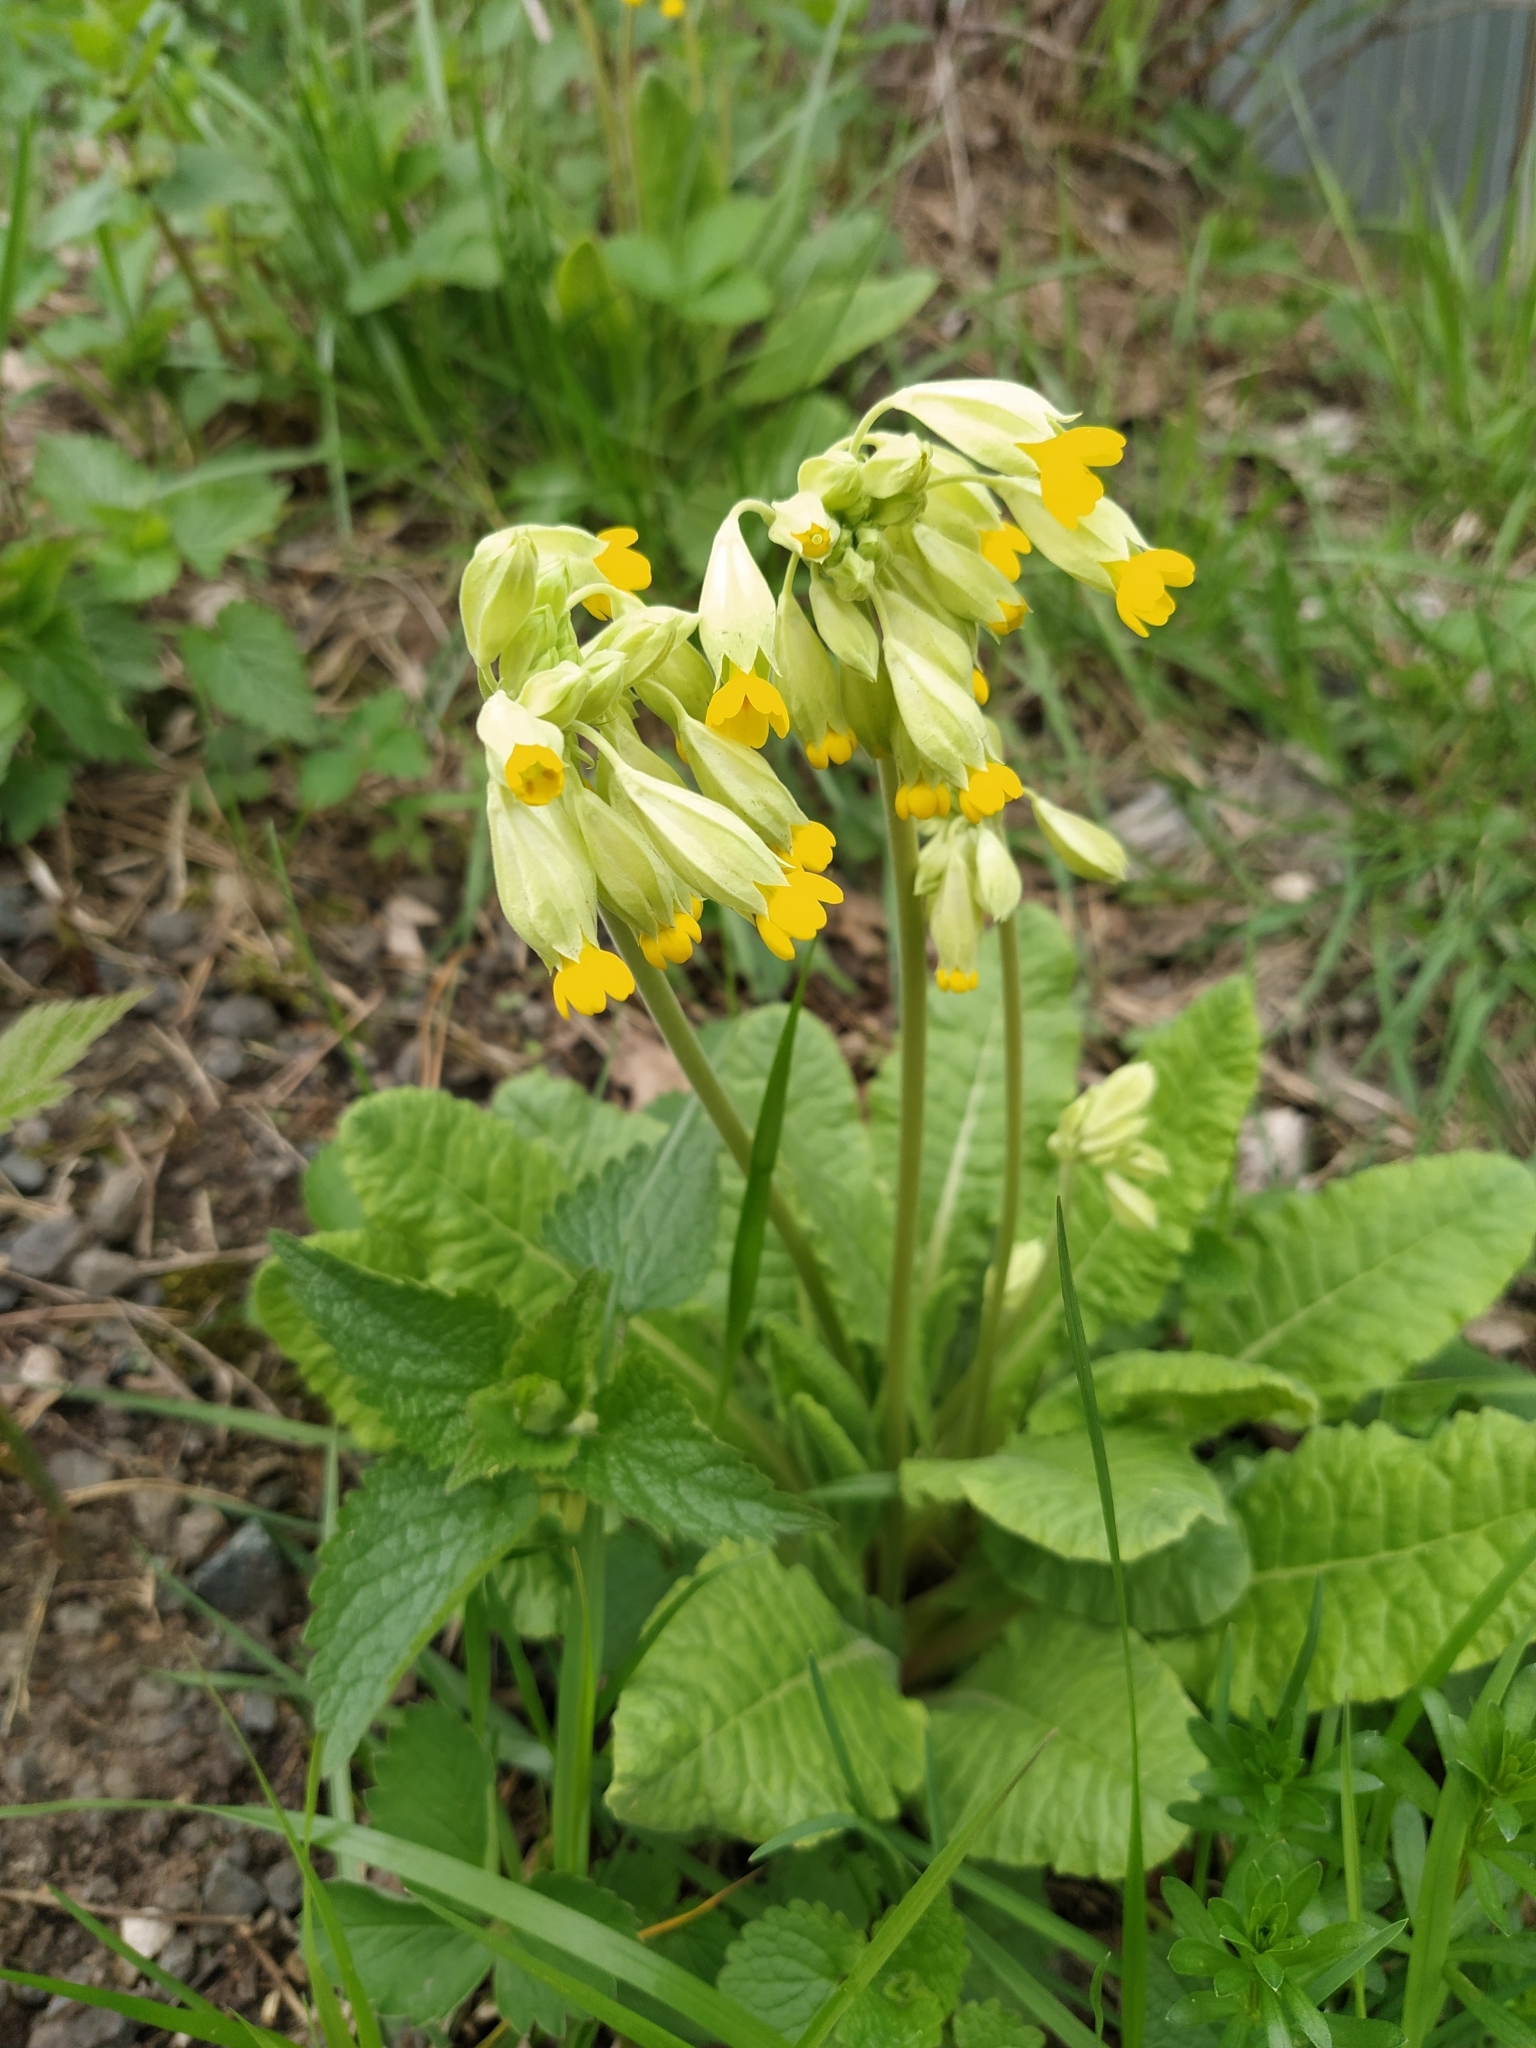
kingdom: Plantae
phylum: Tracheophyta
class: Magnoliopsida
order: Ericales
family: Primulaceae
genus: Primula
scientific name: Primula veris
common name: Cowslip
